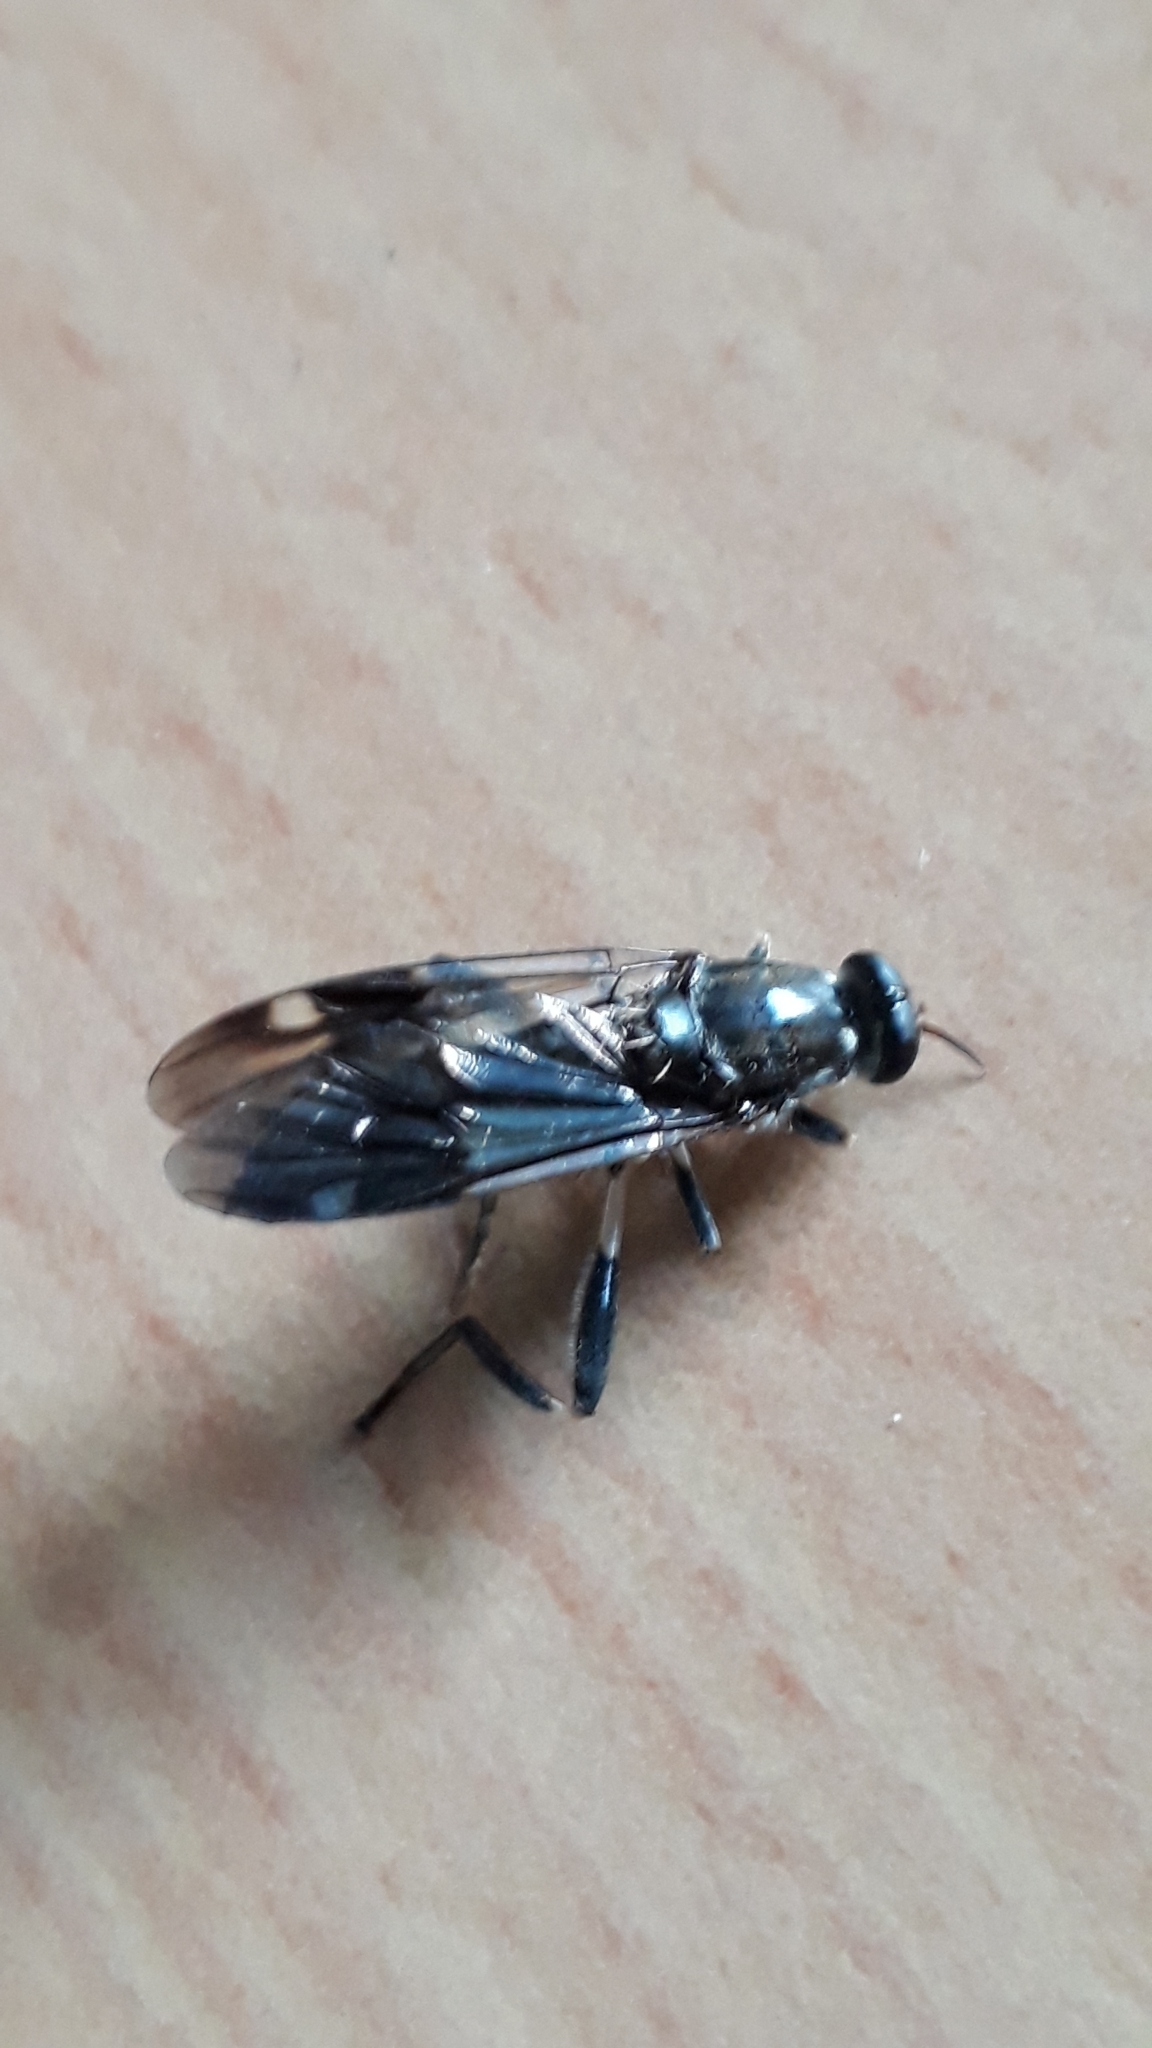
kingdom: Animalia
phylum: Arthropoda
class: Insecta
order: Diptera
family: Stratiomyidae
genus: Exaireta
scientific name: Exaireta spinigera
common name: Blue soldier fly
